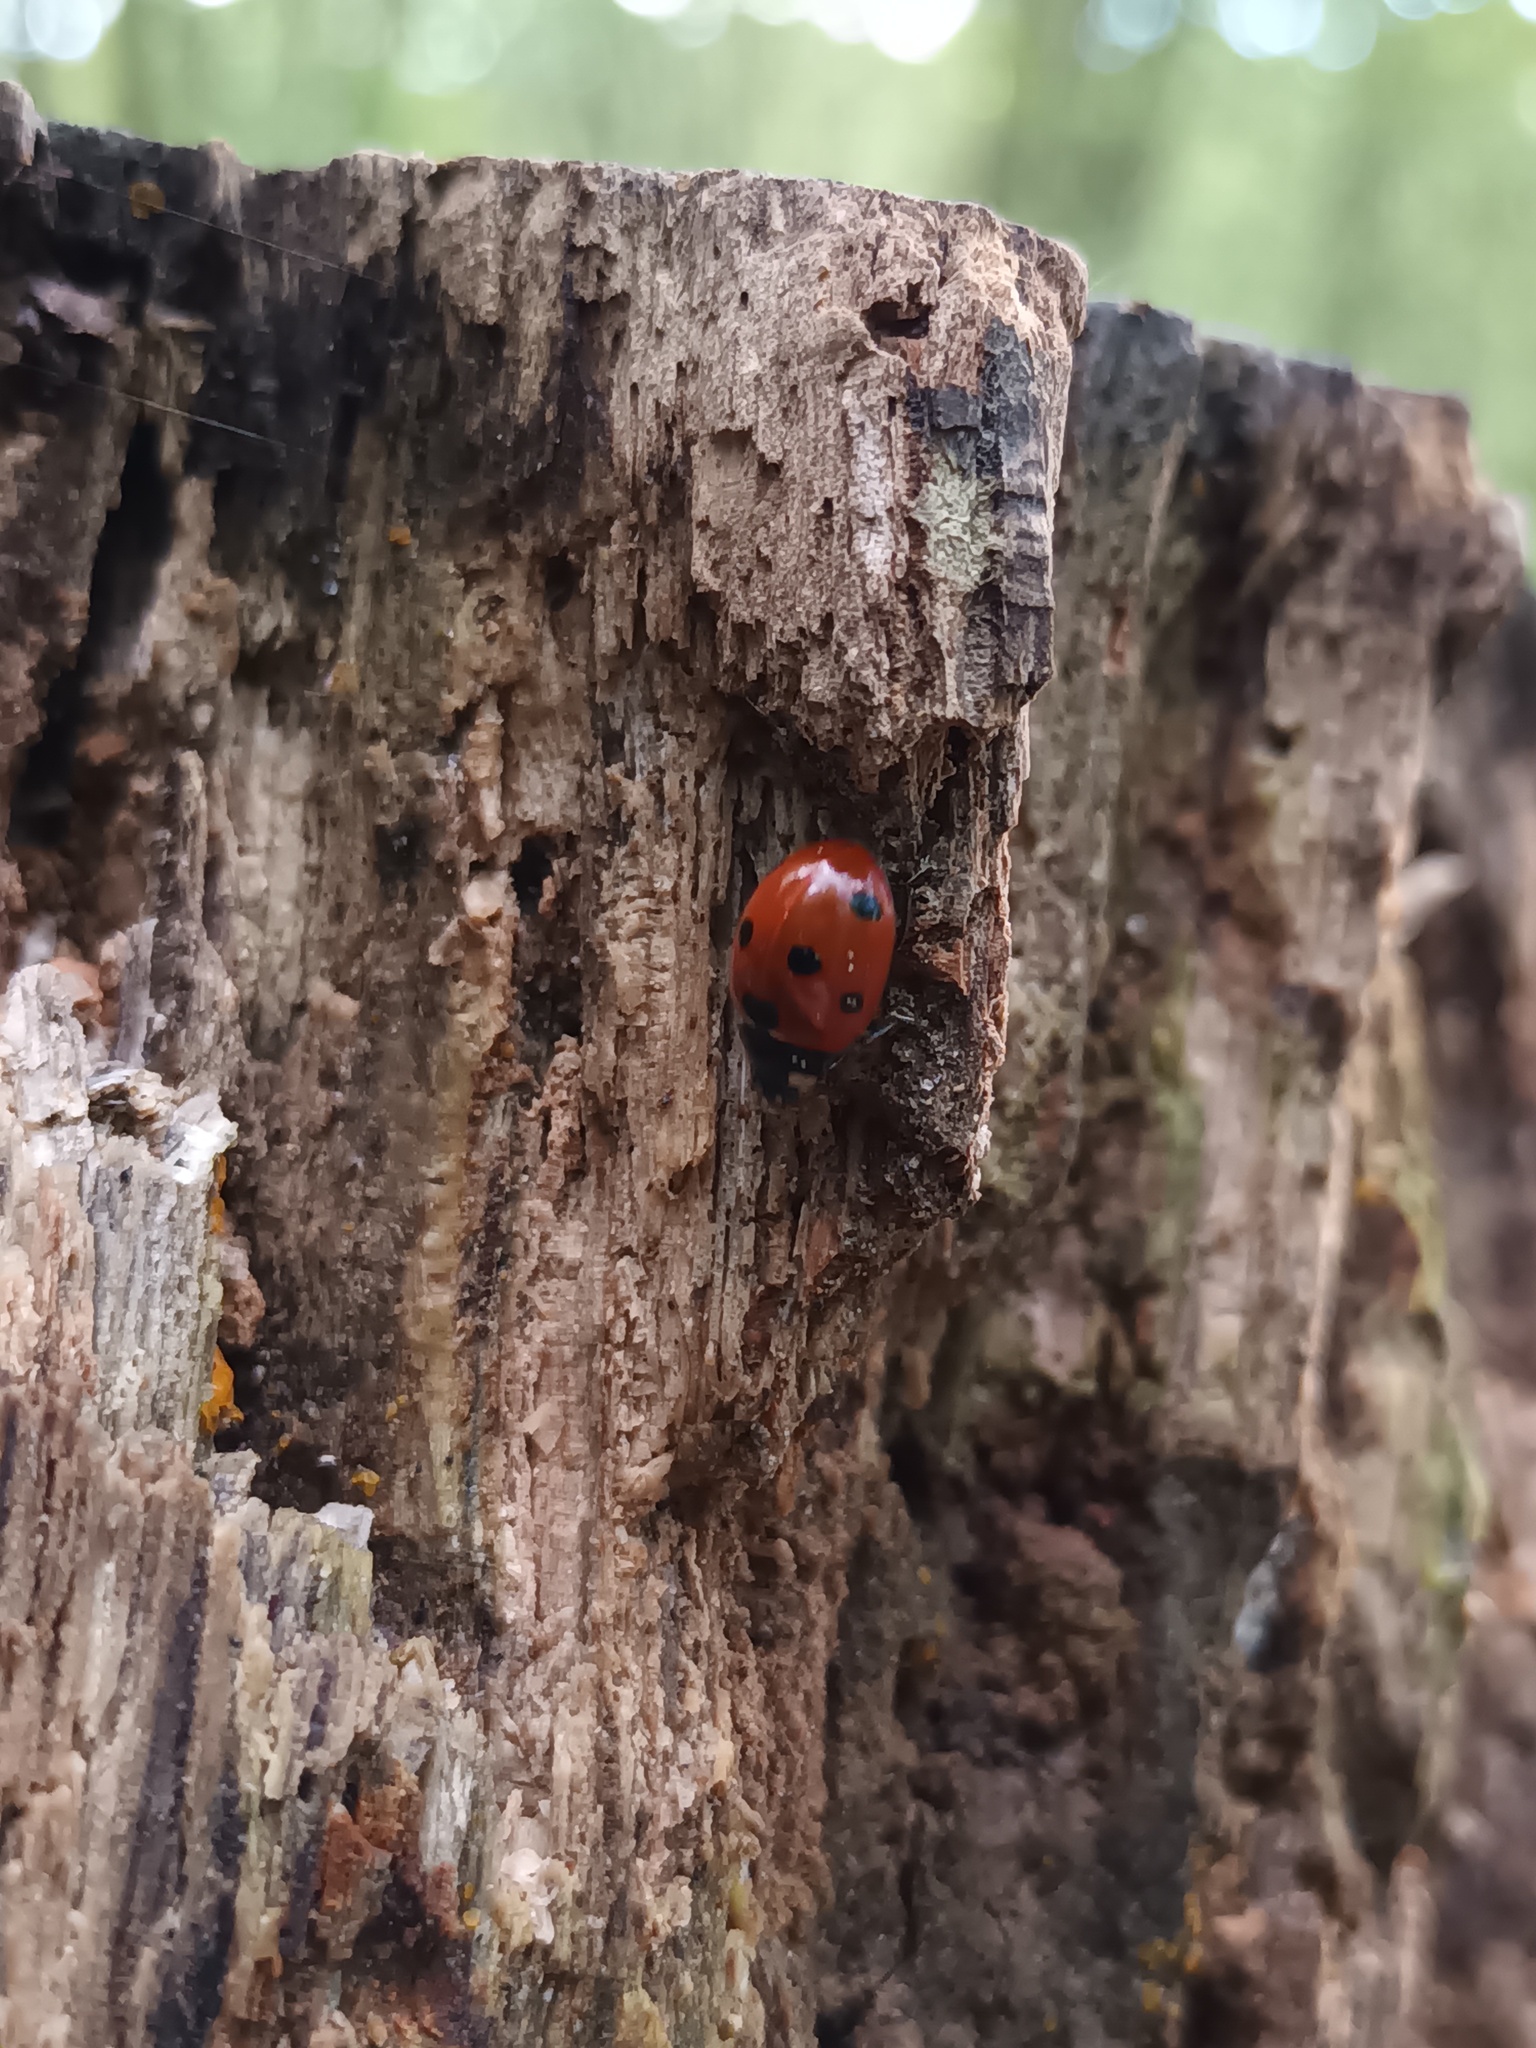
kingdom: Animalia
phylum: Arthropoda
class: Insecta
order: Coleoptera
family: Coccinellidae
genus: Coccinella
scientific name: Coccinella septempunctata
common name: Sevenspotted lady beetle
